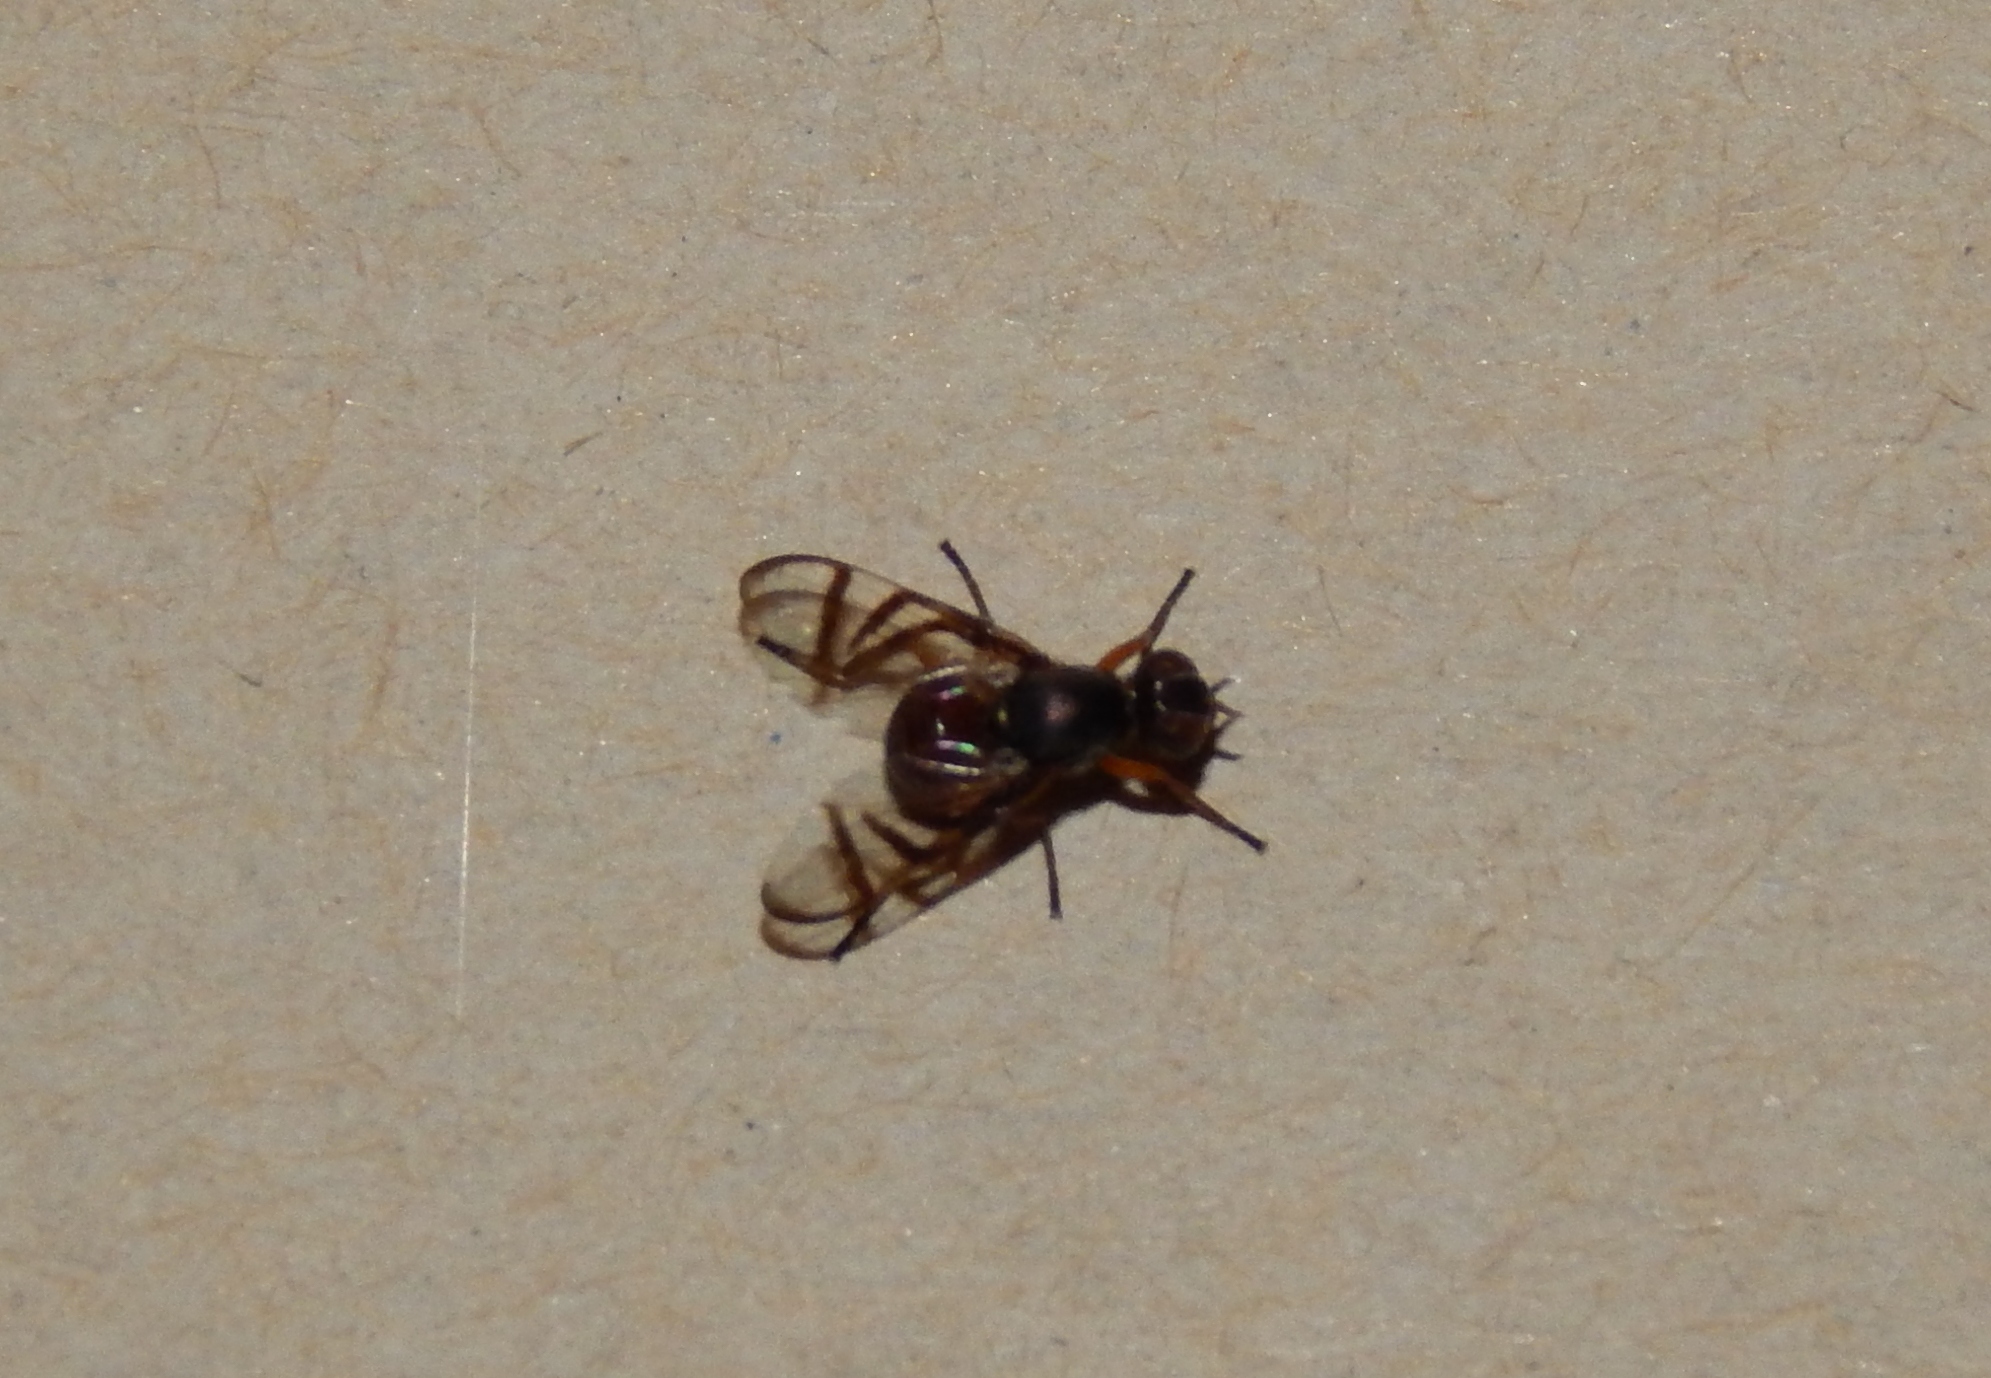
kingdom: Animalia
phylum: Arthropoda
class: Insecta
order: Diptera
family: Platystomatidae
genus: Rivellia
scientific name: Rivellia
